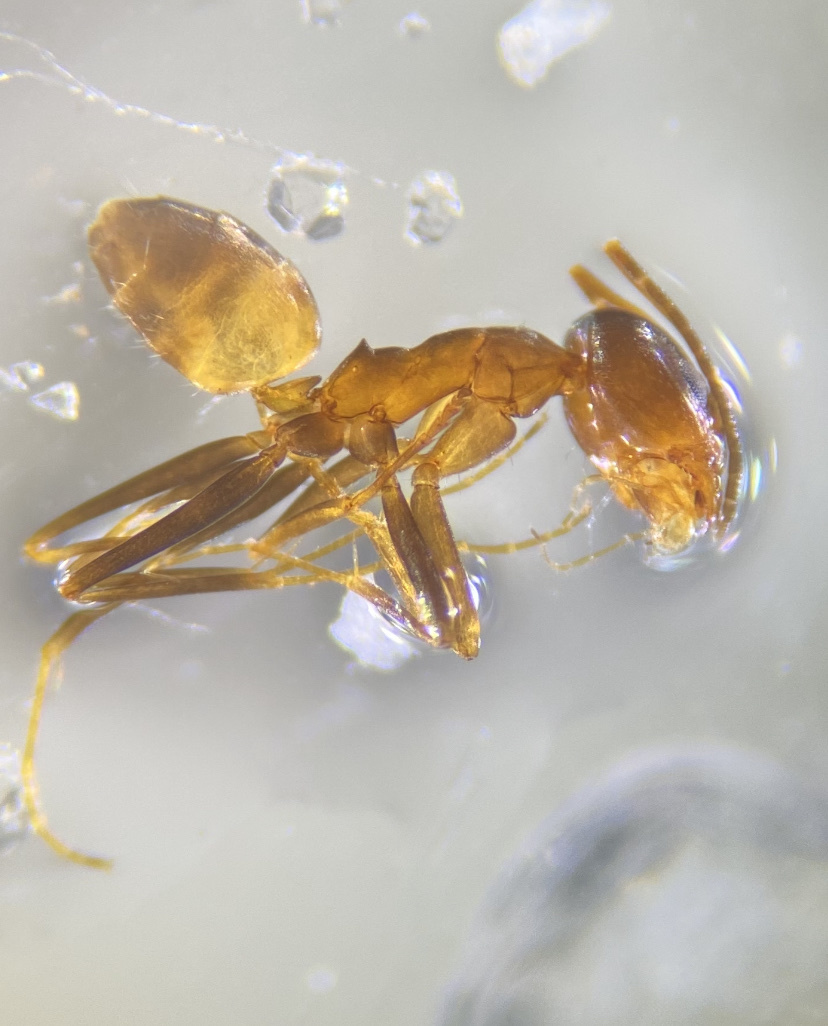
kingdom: Animalia
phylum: Arthropoda
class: Insecta
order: Hymenoptera
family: Formicidae
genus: Dorymyrmex
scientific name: Dorymyrmex flavus
